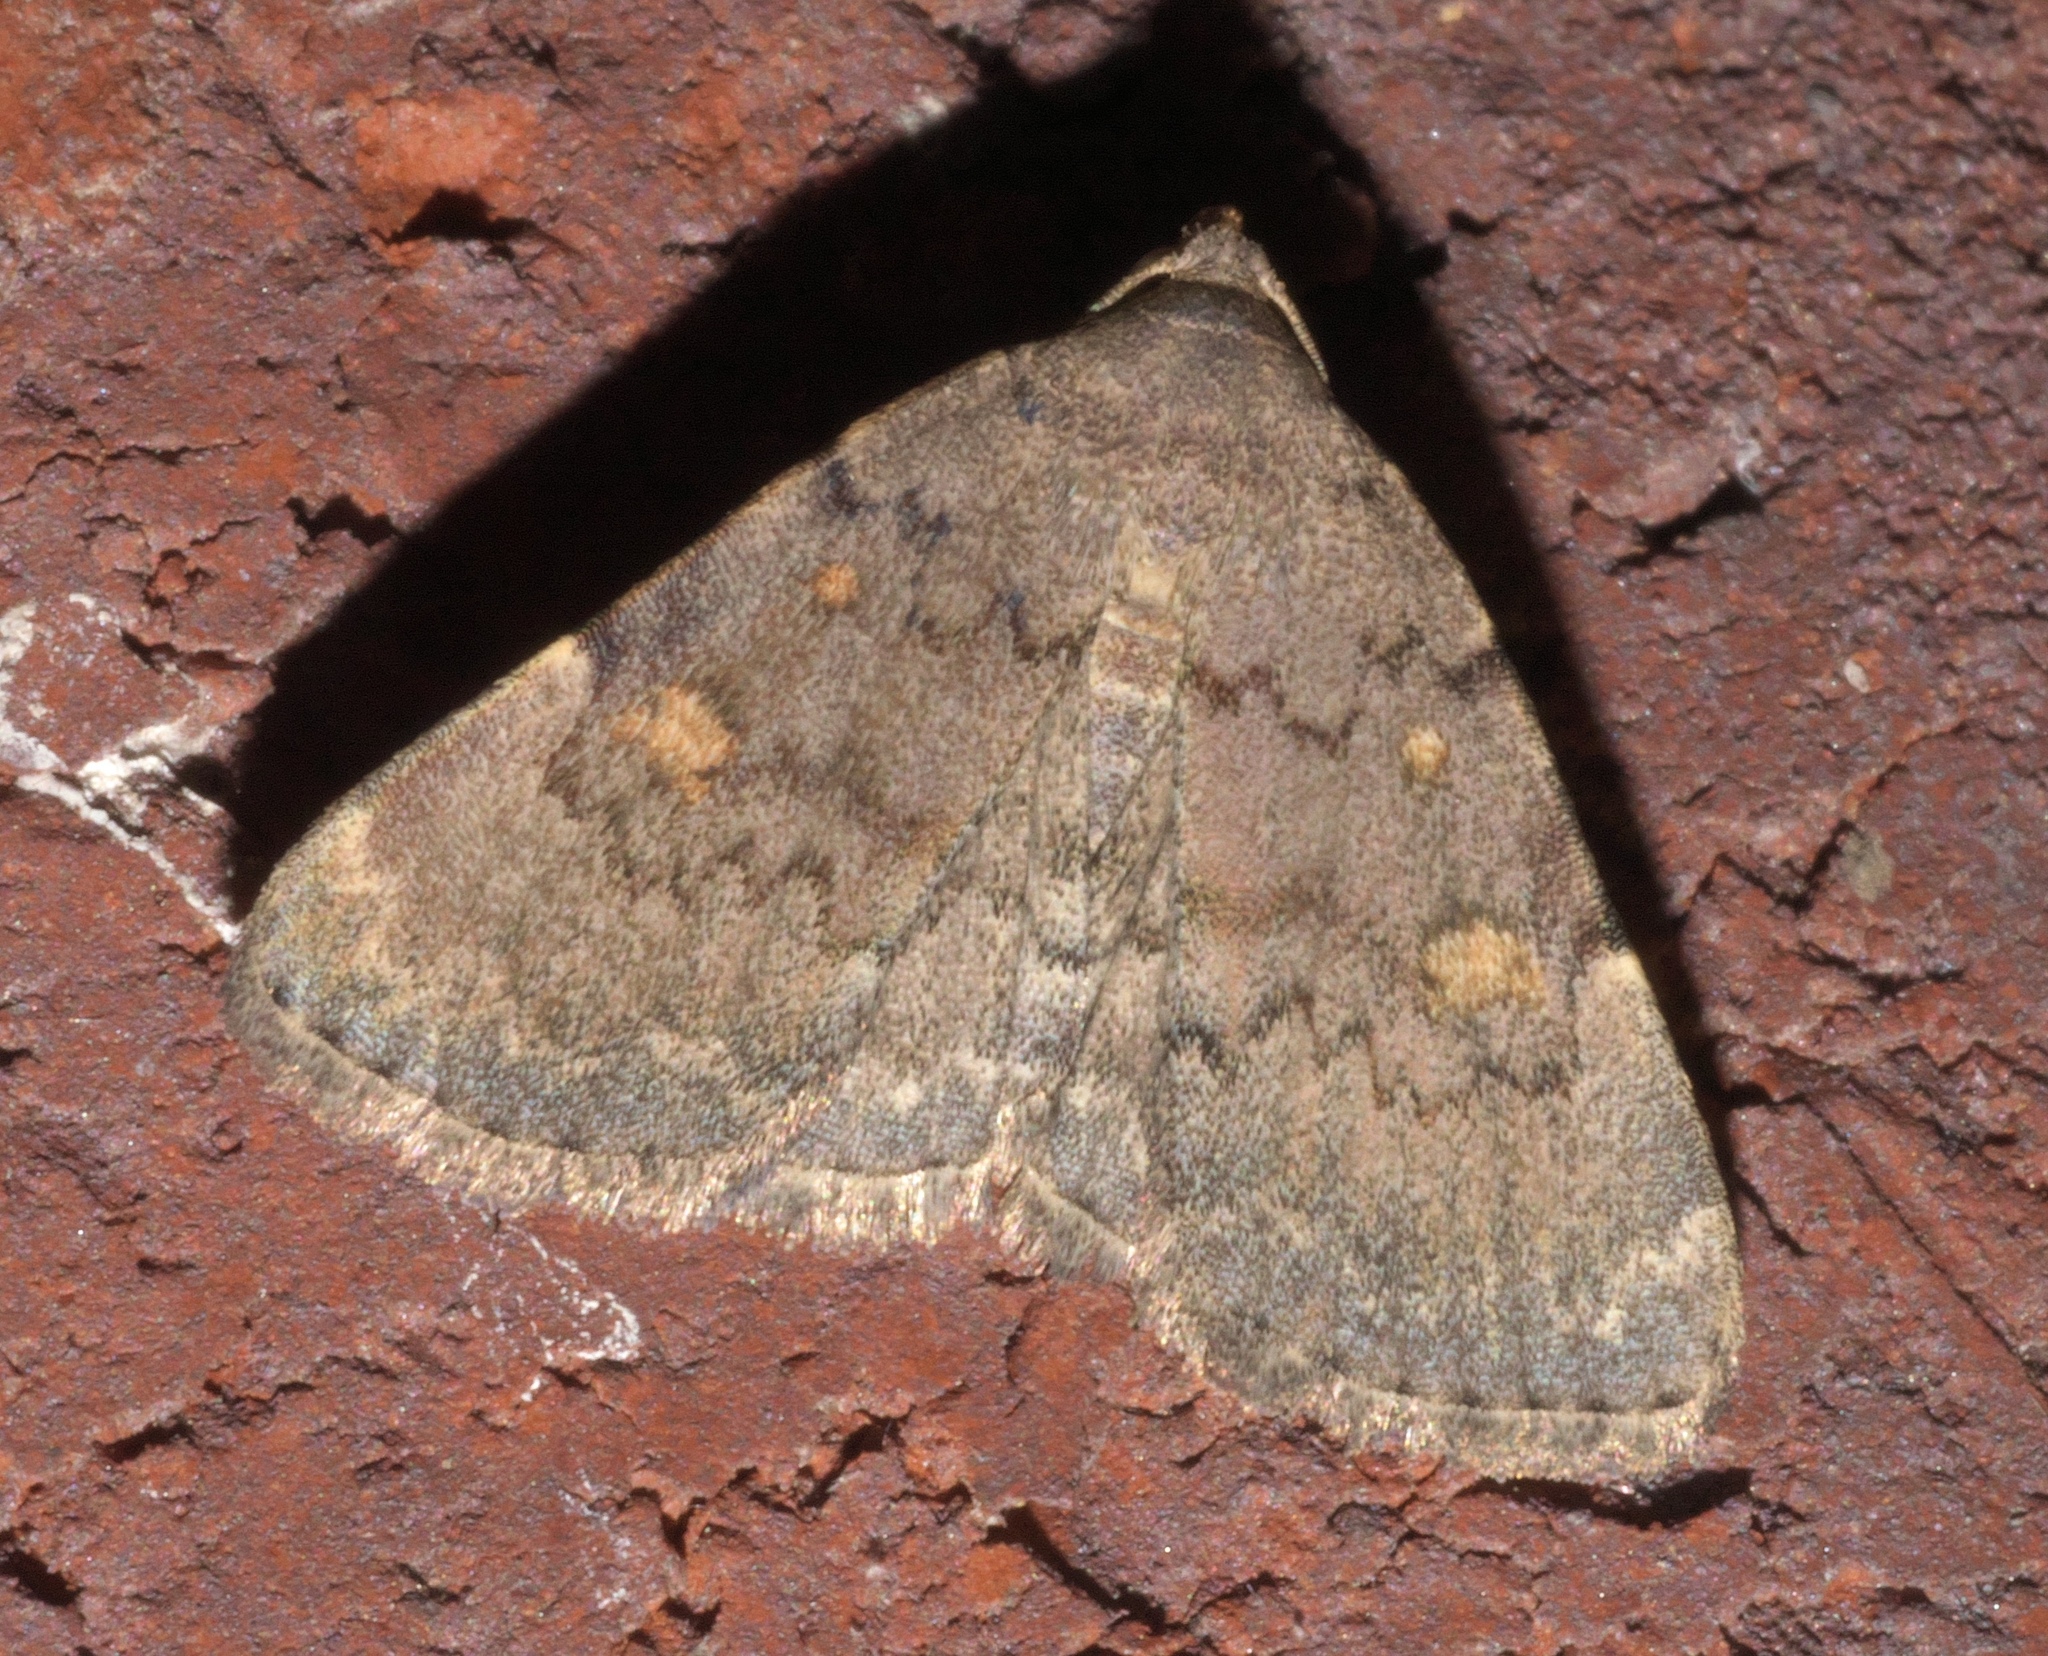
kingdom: Animalia
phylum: Arthropoda
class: Insecta
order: Lepidoptera
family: Erebidae
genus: Idia
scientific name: Idia aemula
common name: Common idia moth
